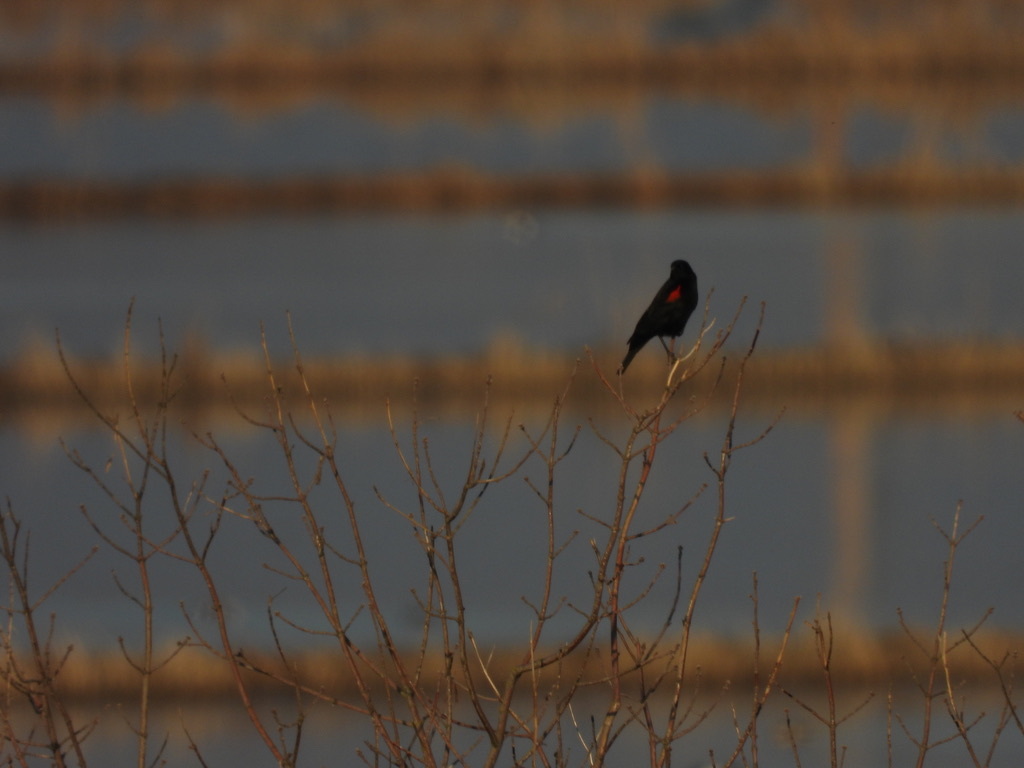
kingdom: Animalia
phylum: Chordata
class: Aves
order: Passeriformes
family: Icteridae
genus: Agelaius
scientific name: Agelaius phoeniceus
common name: Red-winged blackbird
